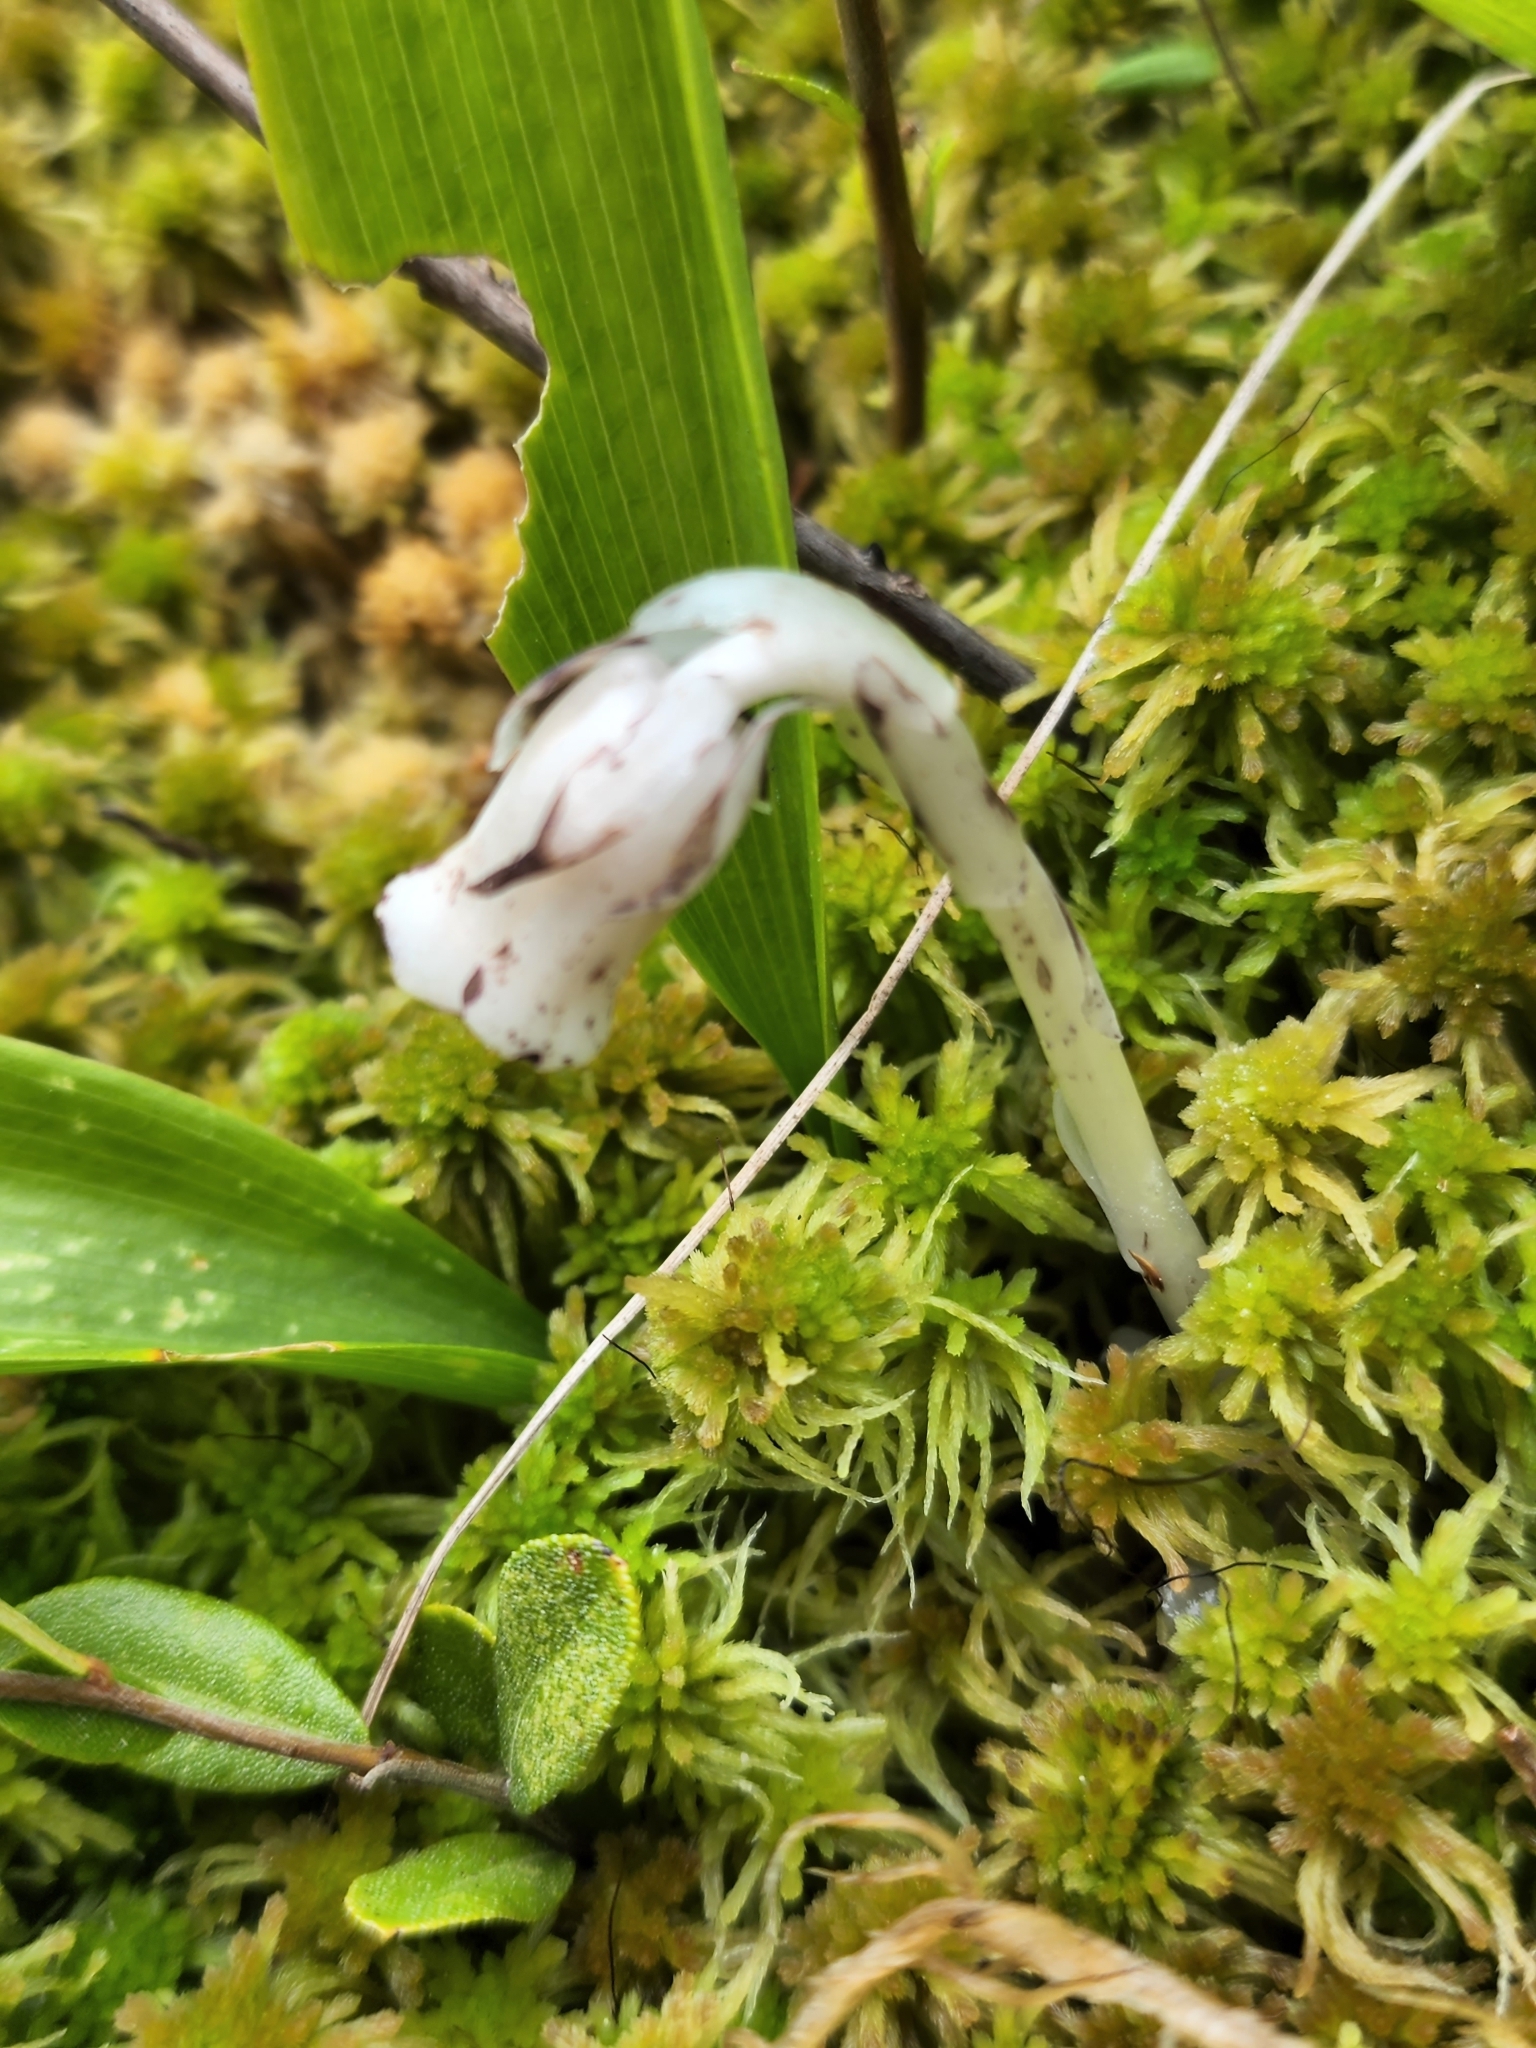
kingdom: Plantae
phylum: Tracheophyta
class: Magnoliopsida
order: Ericales
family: Ericaceae
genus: Monotropa
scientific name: Monotropa uniflora
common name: Convulsion root
